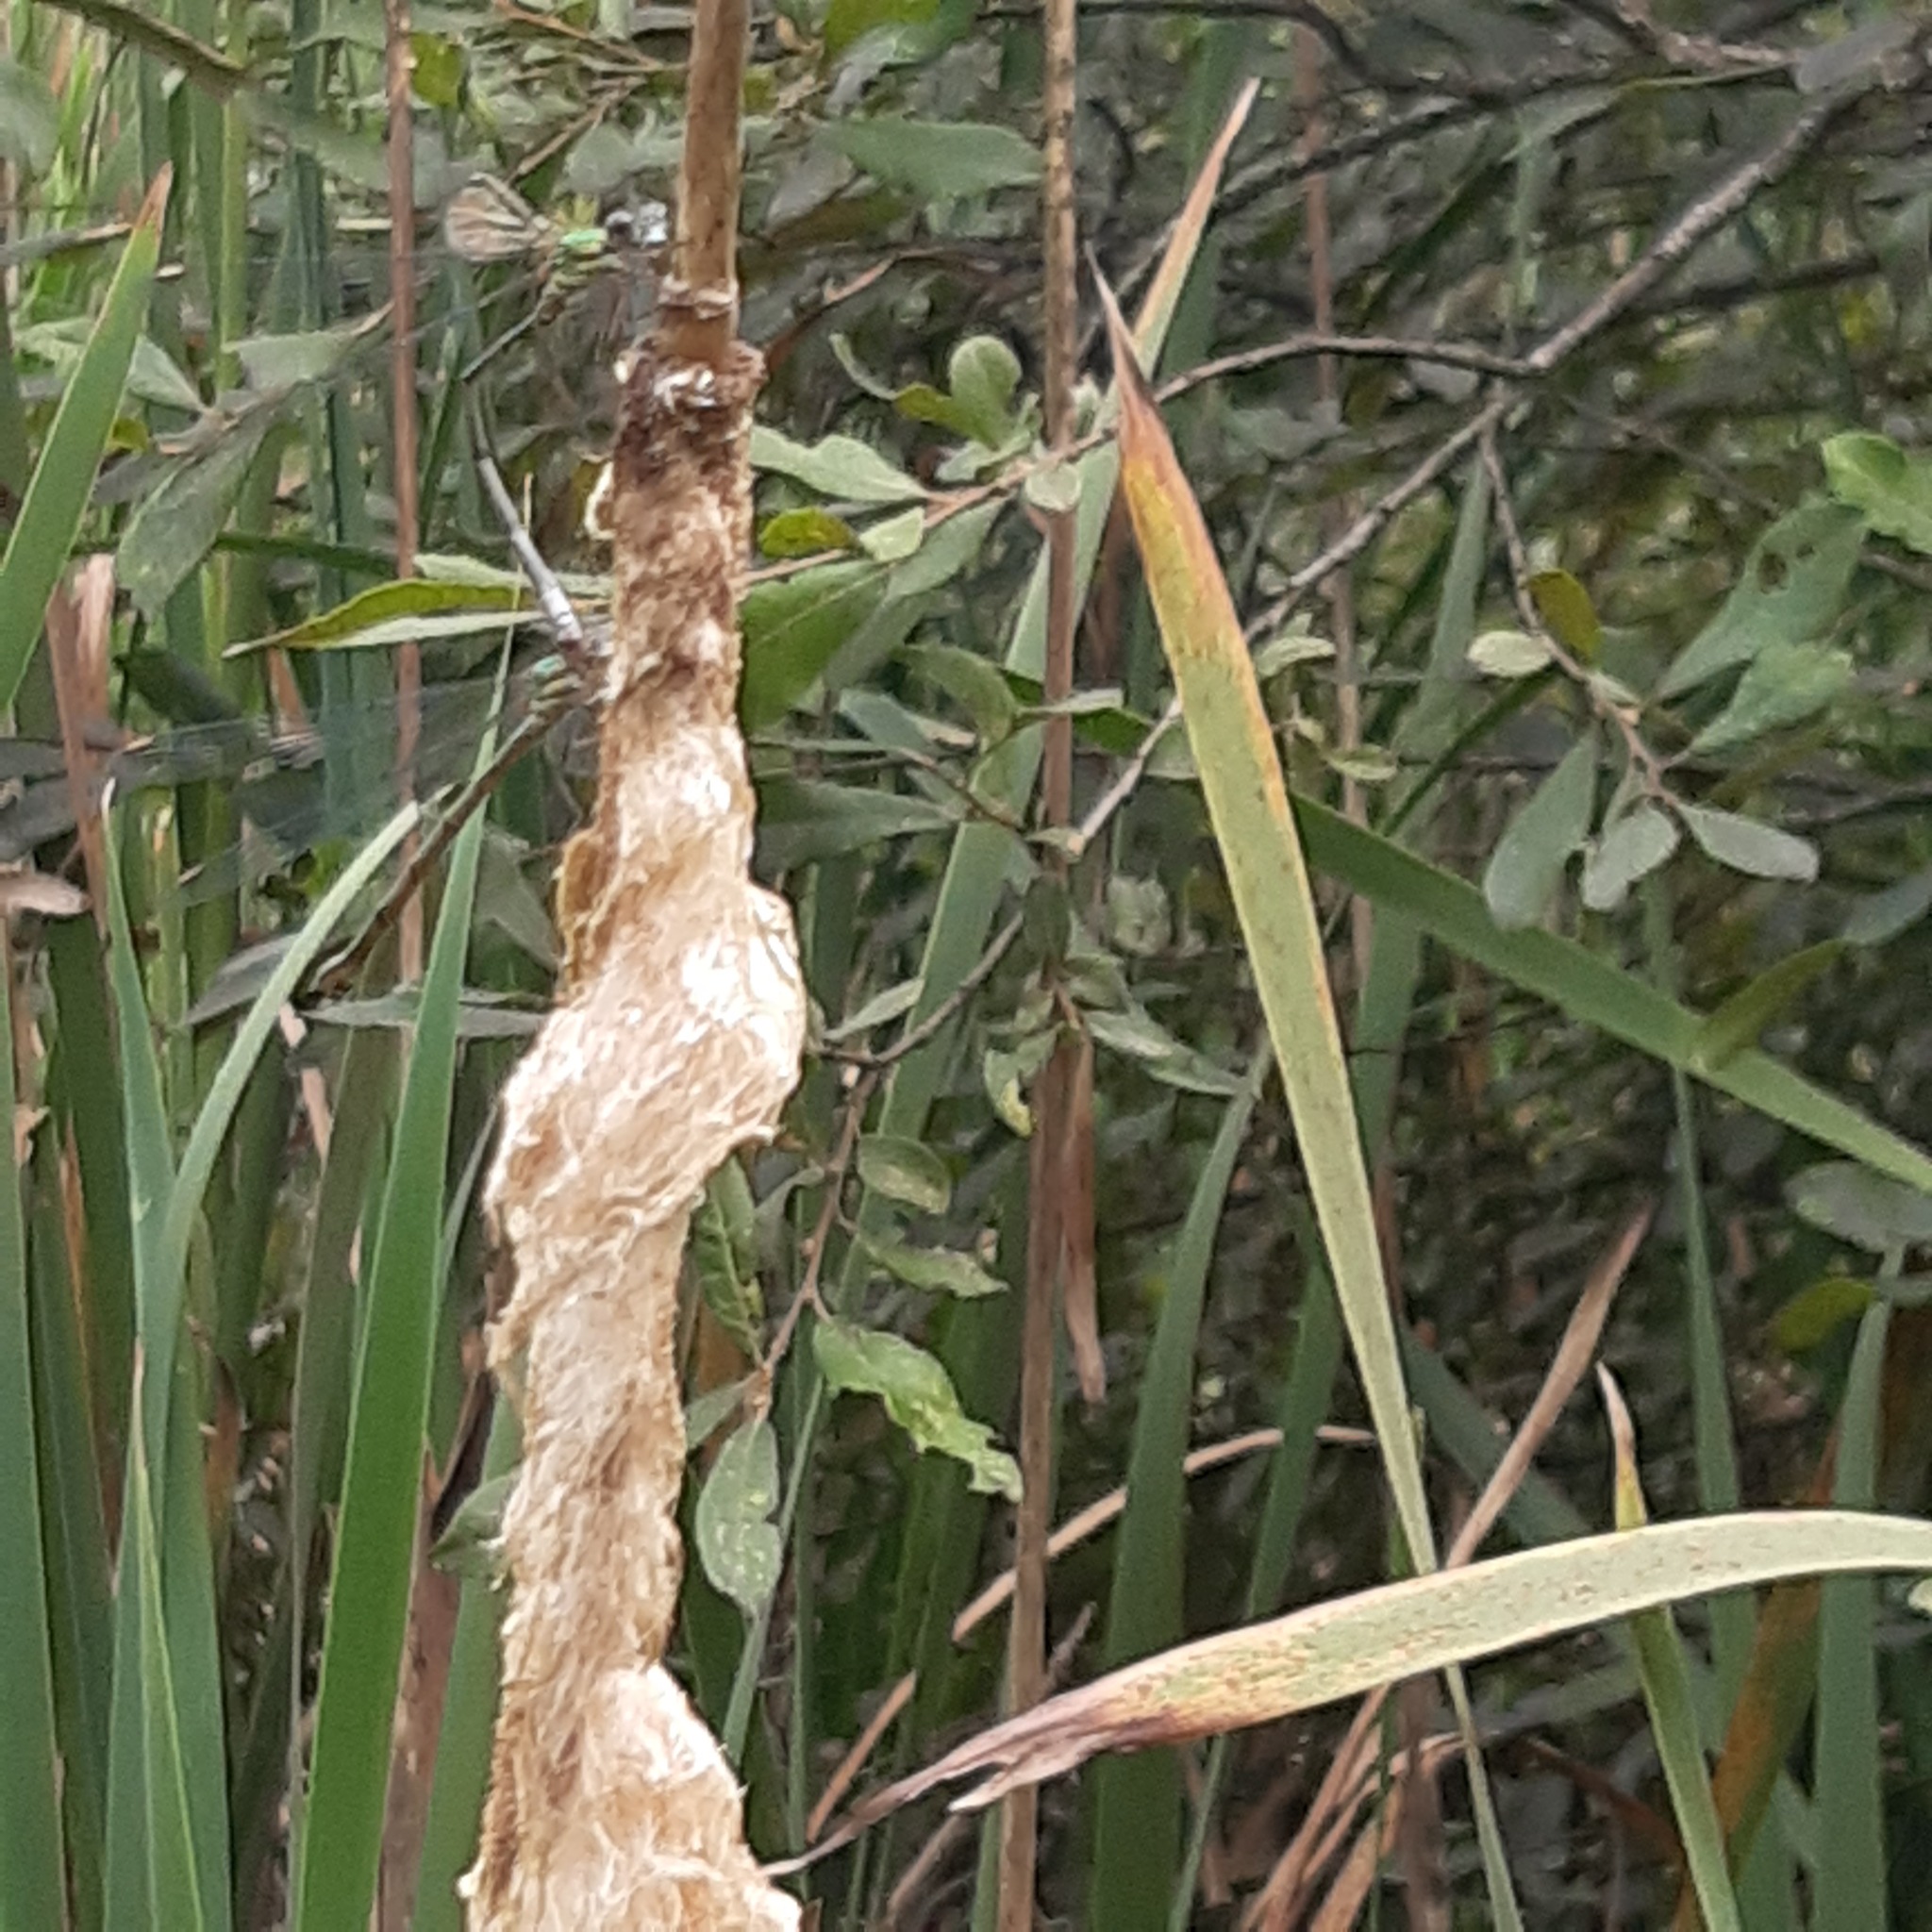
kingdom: Animalia
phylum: Arthropoda
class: Insecta
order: Odonata
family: Lestidae
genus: Chalcolestes
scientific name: Chalcolestes viridis
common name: Green emerald damselfly
